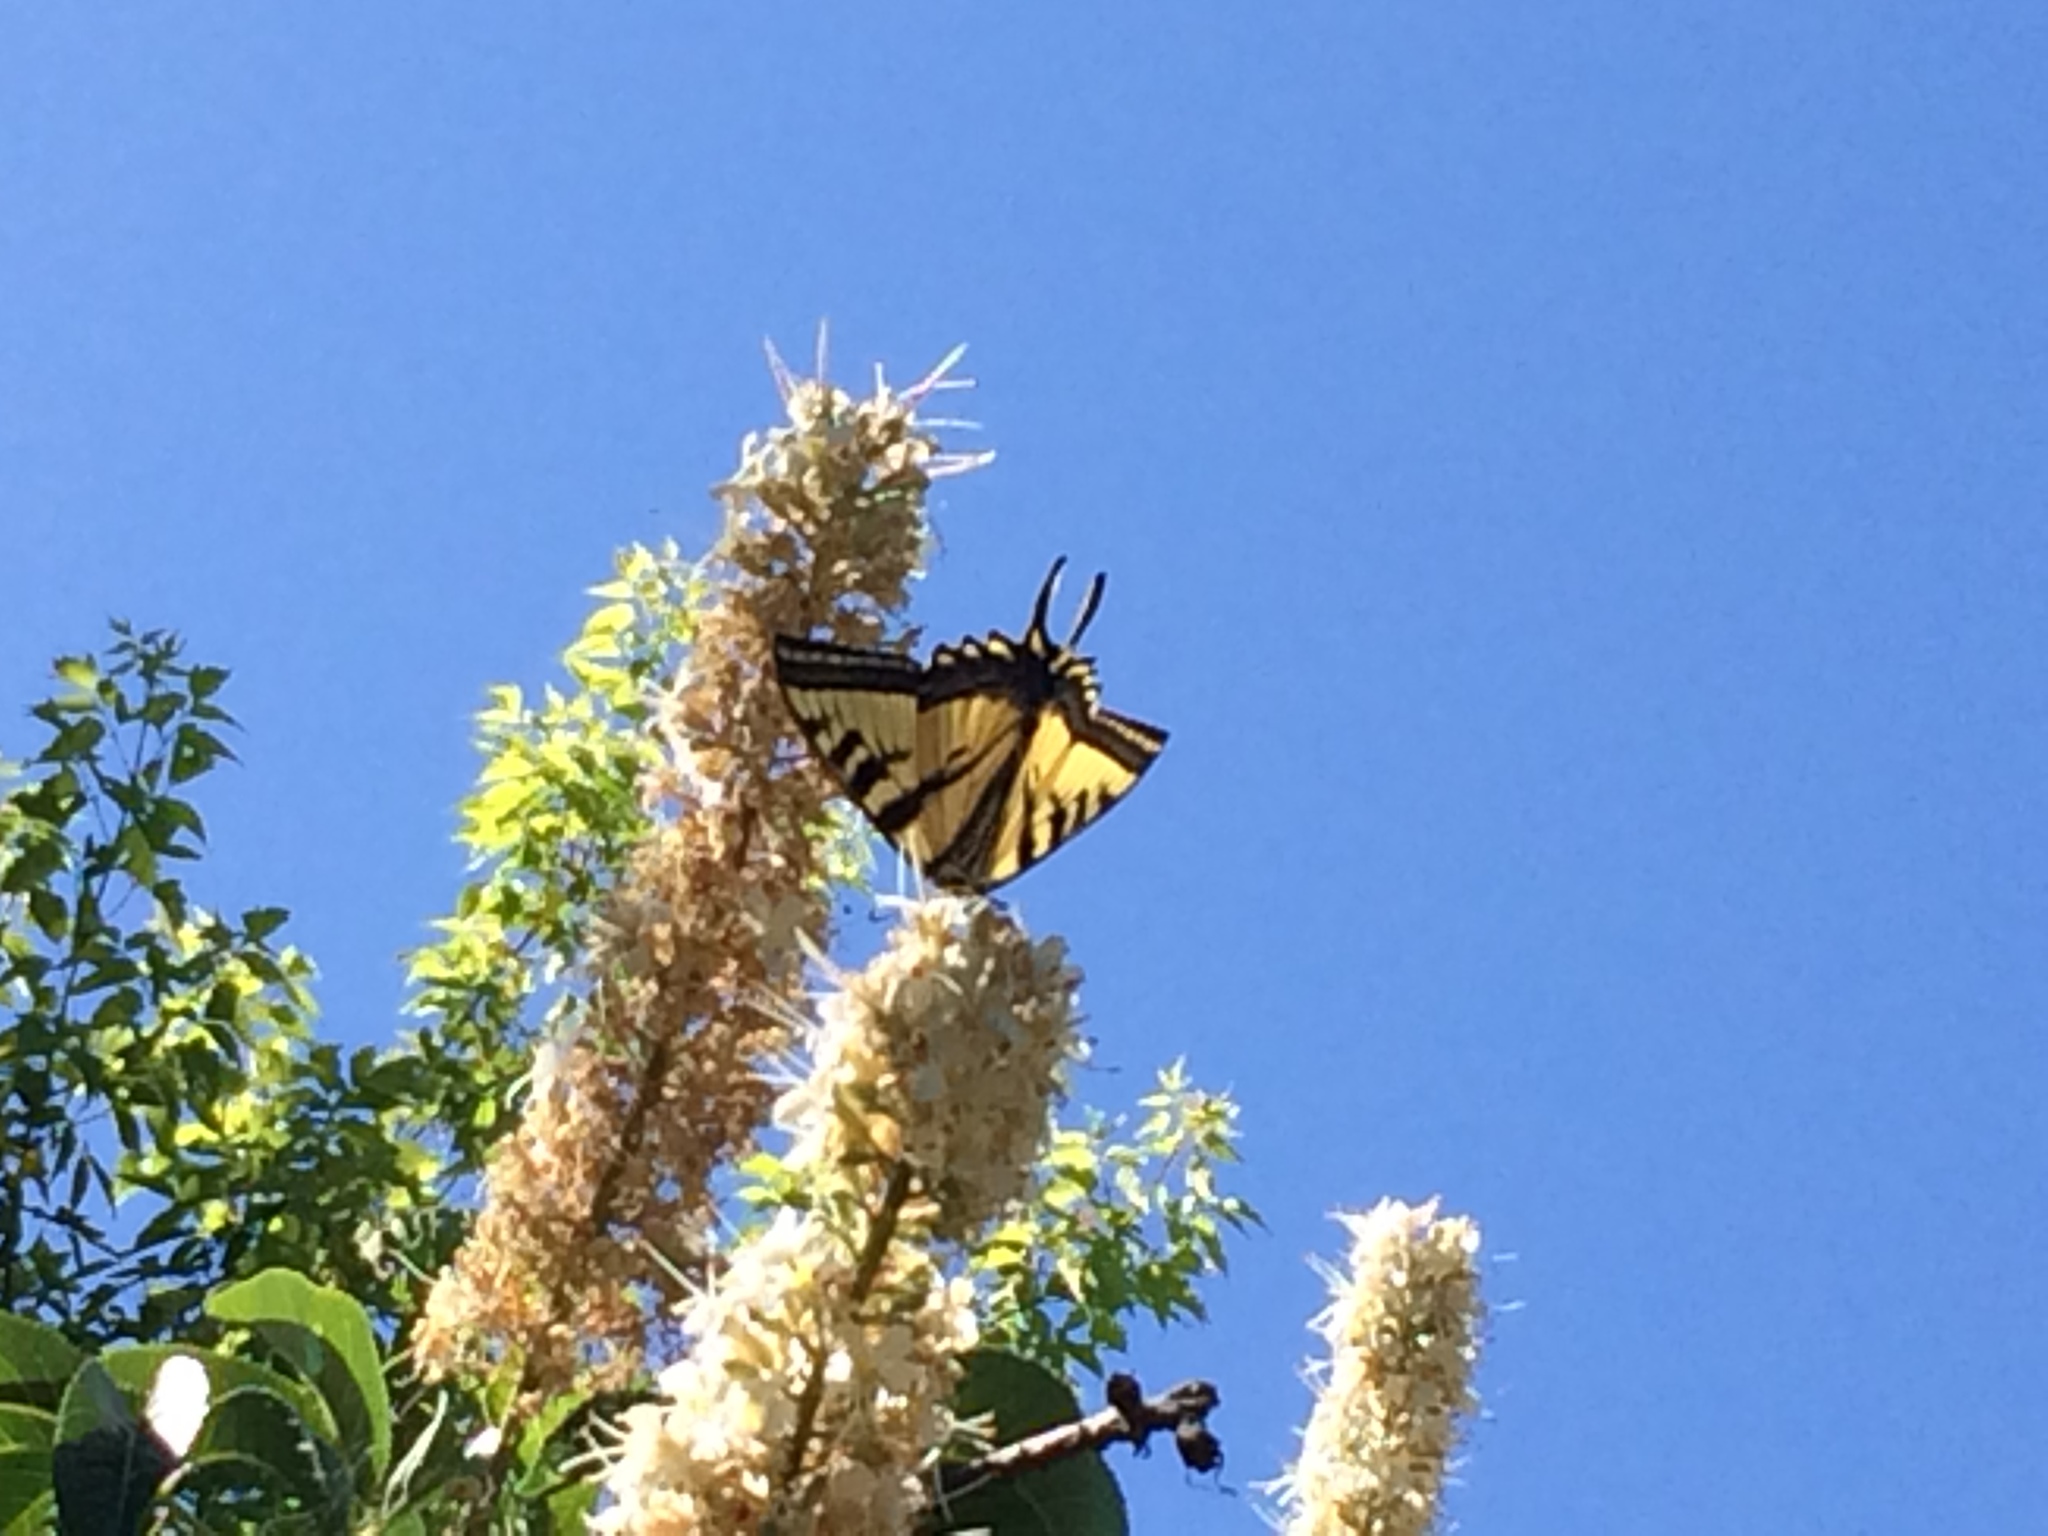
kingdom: Animalia
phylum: Arthropoda
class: Insecta
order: Lepidoptera
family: Papilionidae
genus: Papilio
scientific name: Papilio rutulus
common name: Western tiger swallowtail
